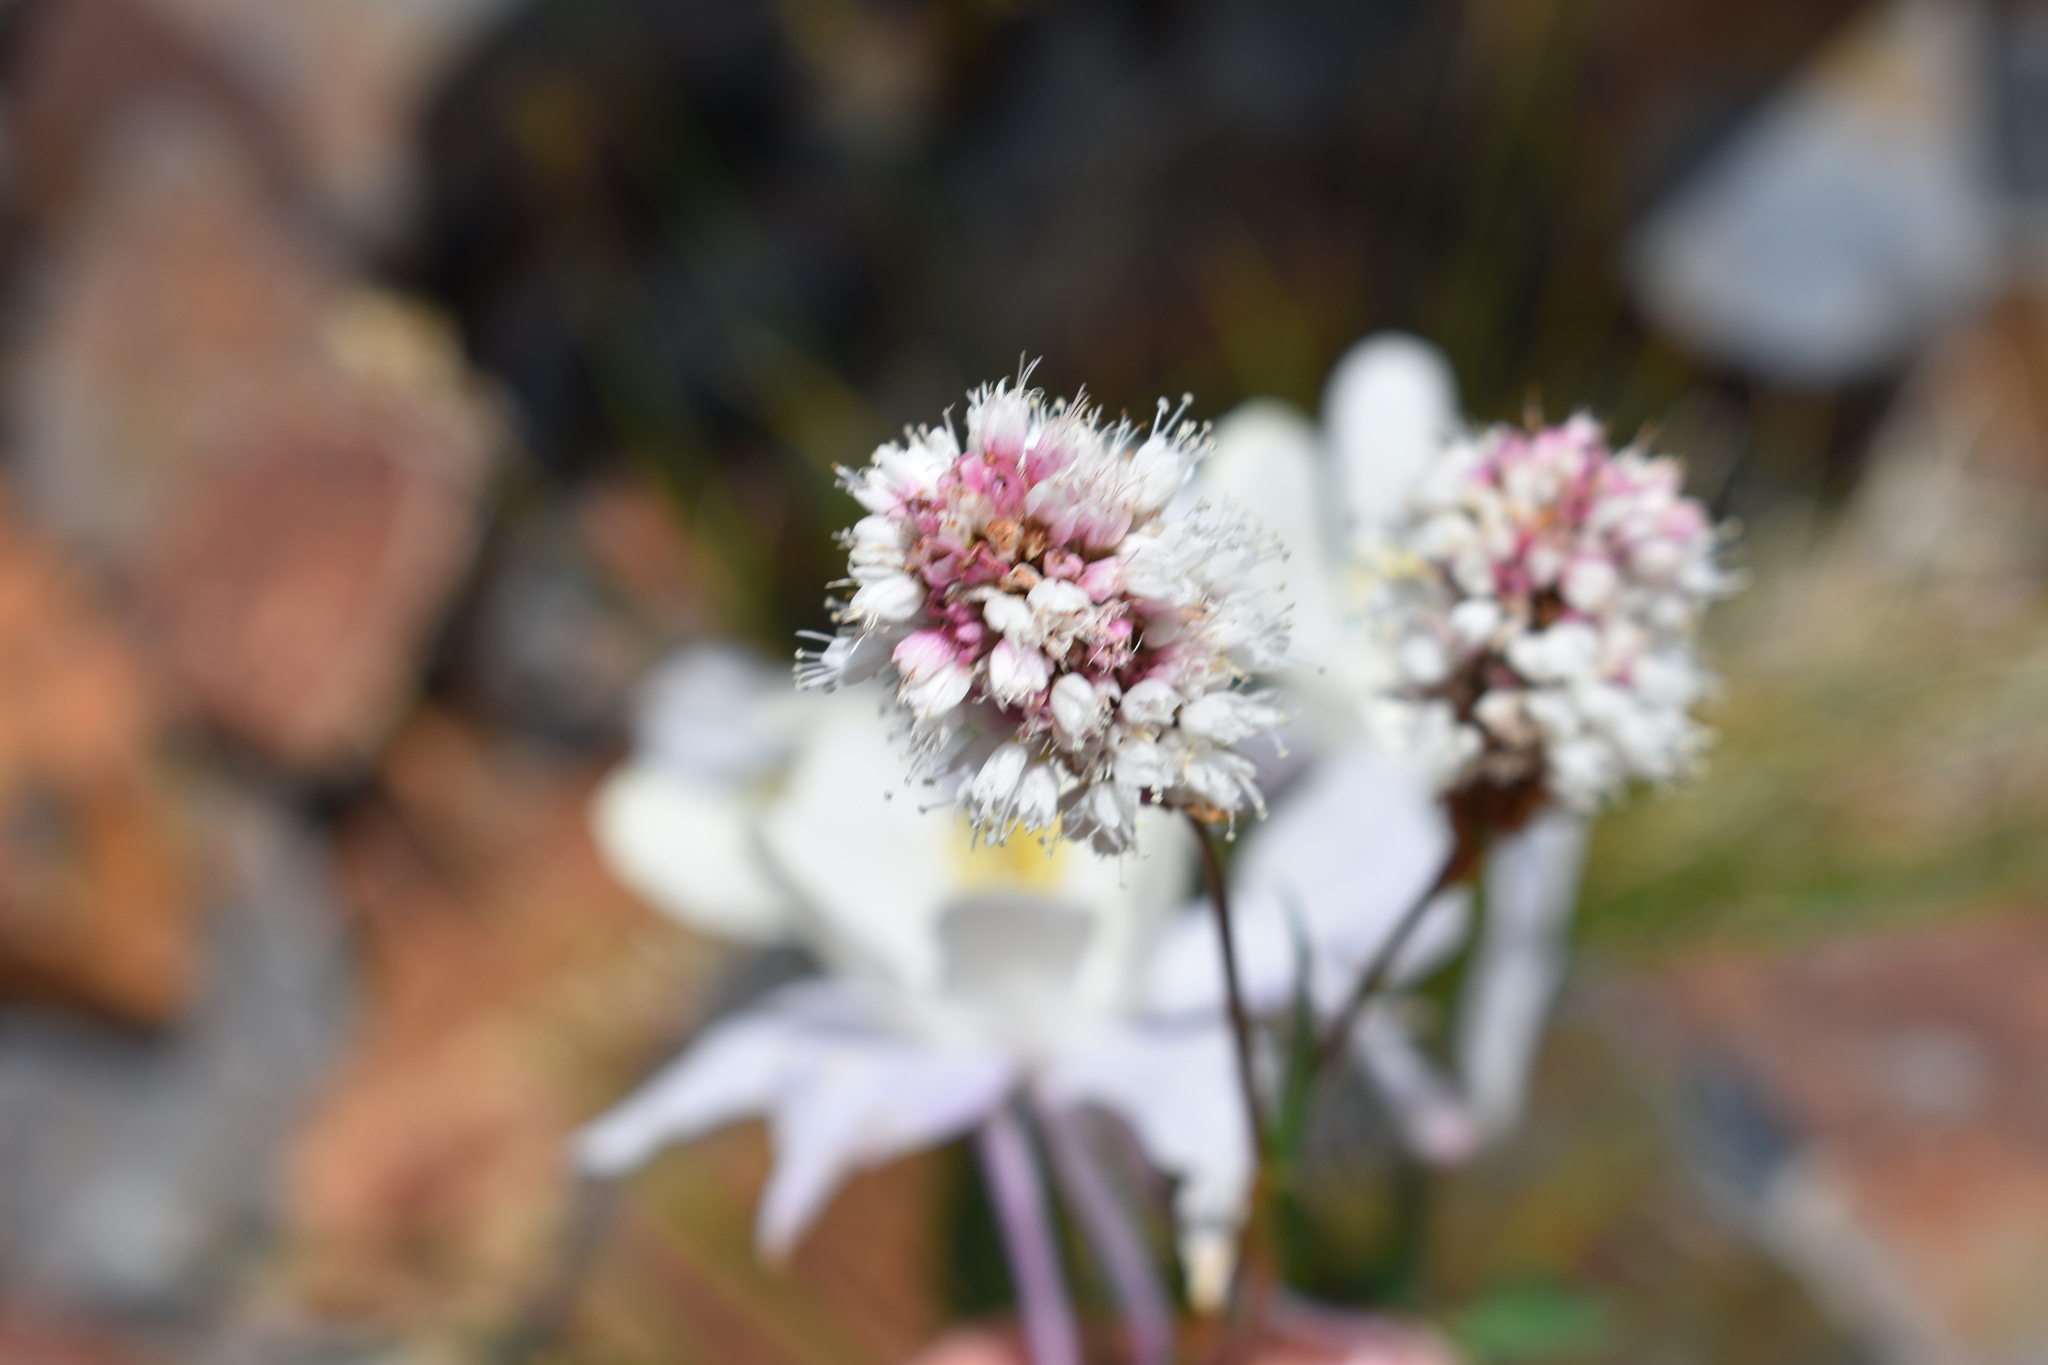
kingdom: Plantae
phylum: Tracheophyta
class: Magnoliopsida
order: Caryophyllales
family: Polygonaceae
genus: Bistorta
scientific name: Bistorta bistortoides
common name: American bistort
